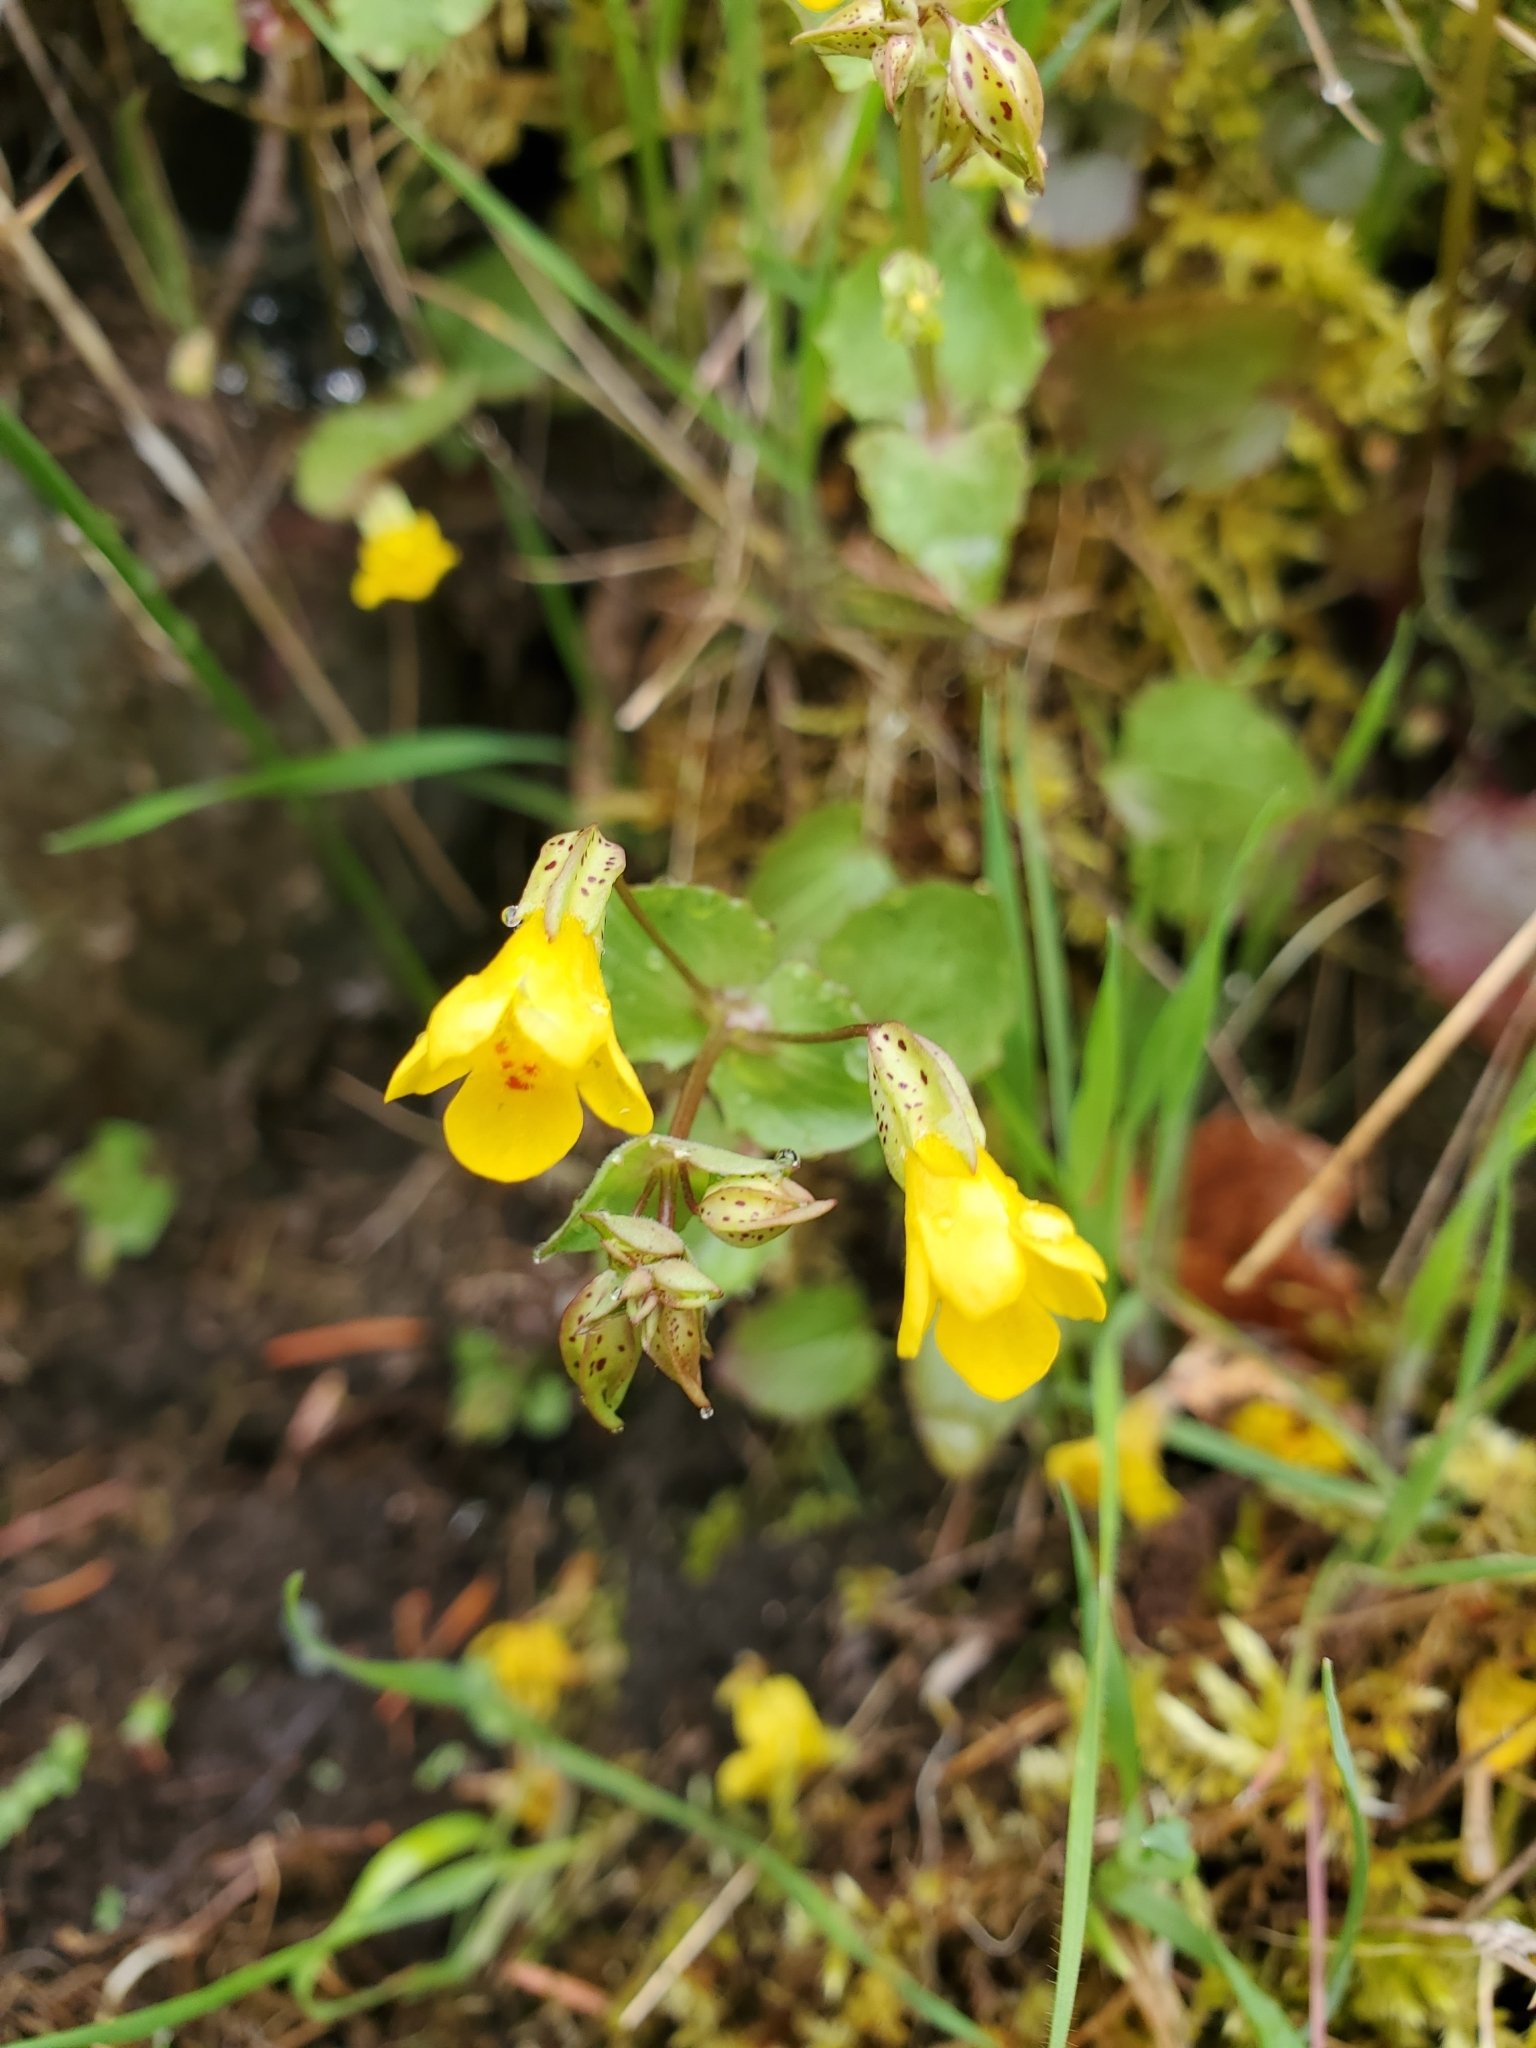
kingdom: Plantae
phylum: Tracheophyta
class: Magnoliopsida
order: Lamiales
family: Phrymaceae
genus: Erythranthe
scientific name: Erythranthe nasuta
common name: Sooke monkeyflower
